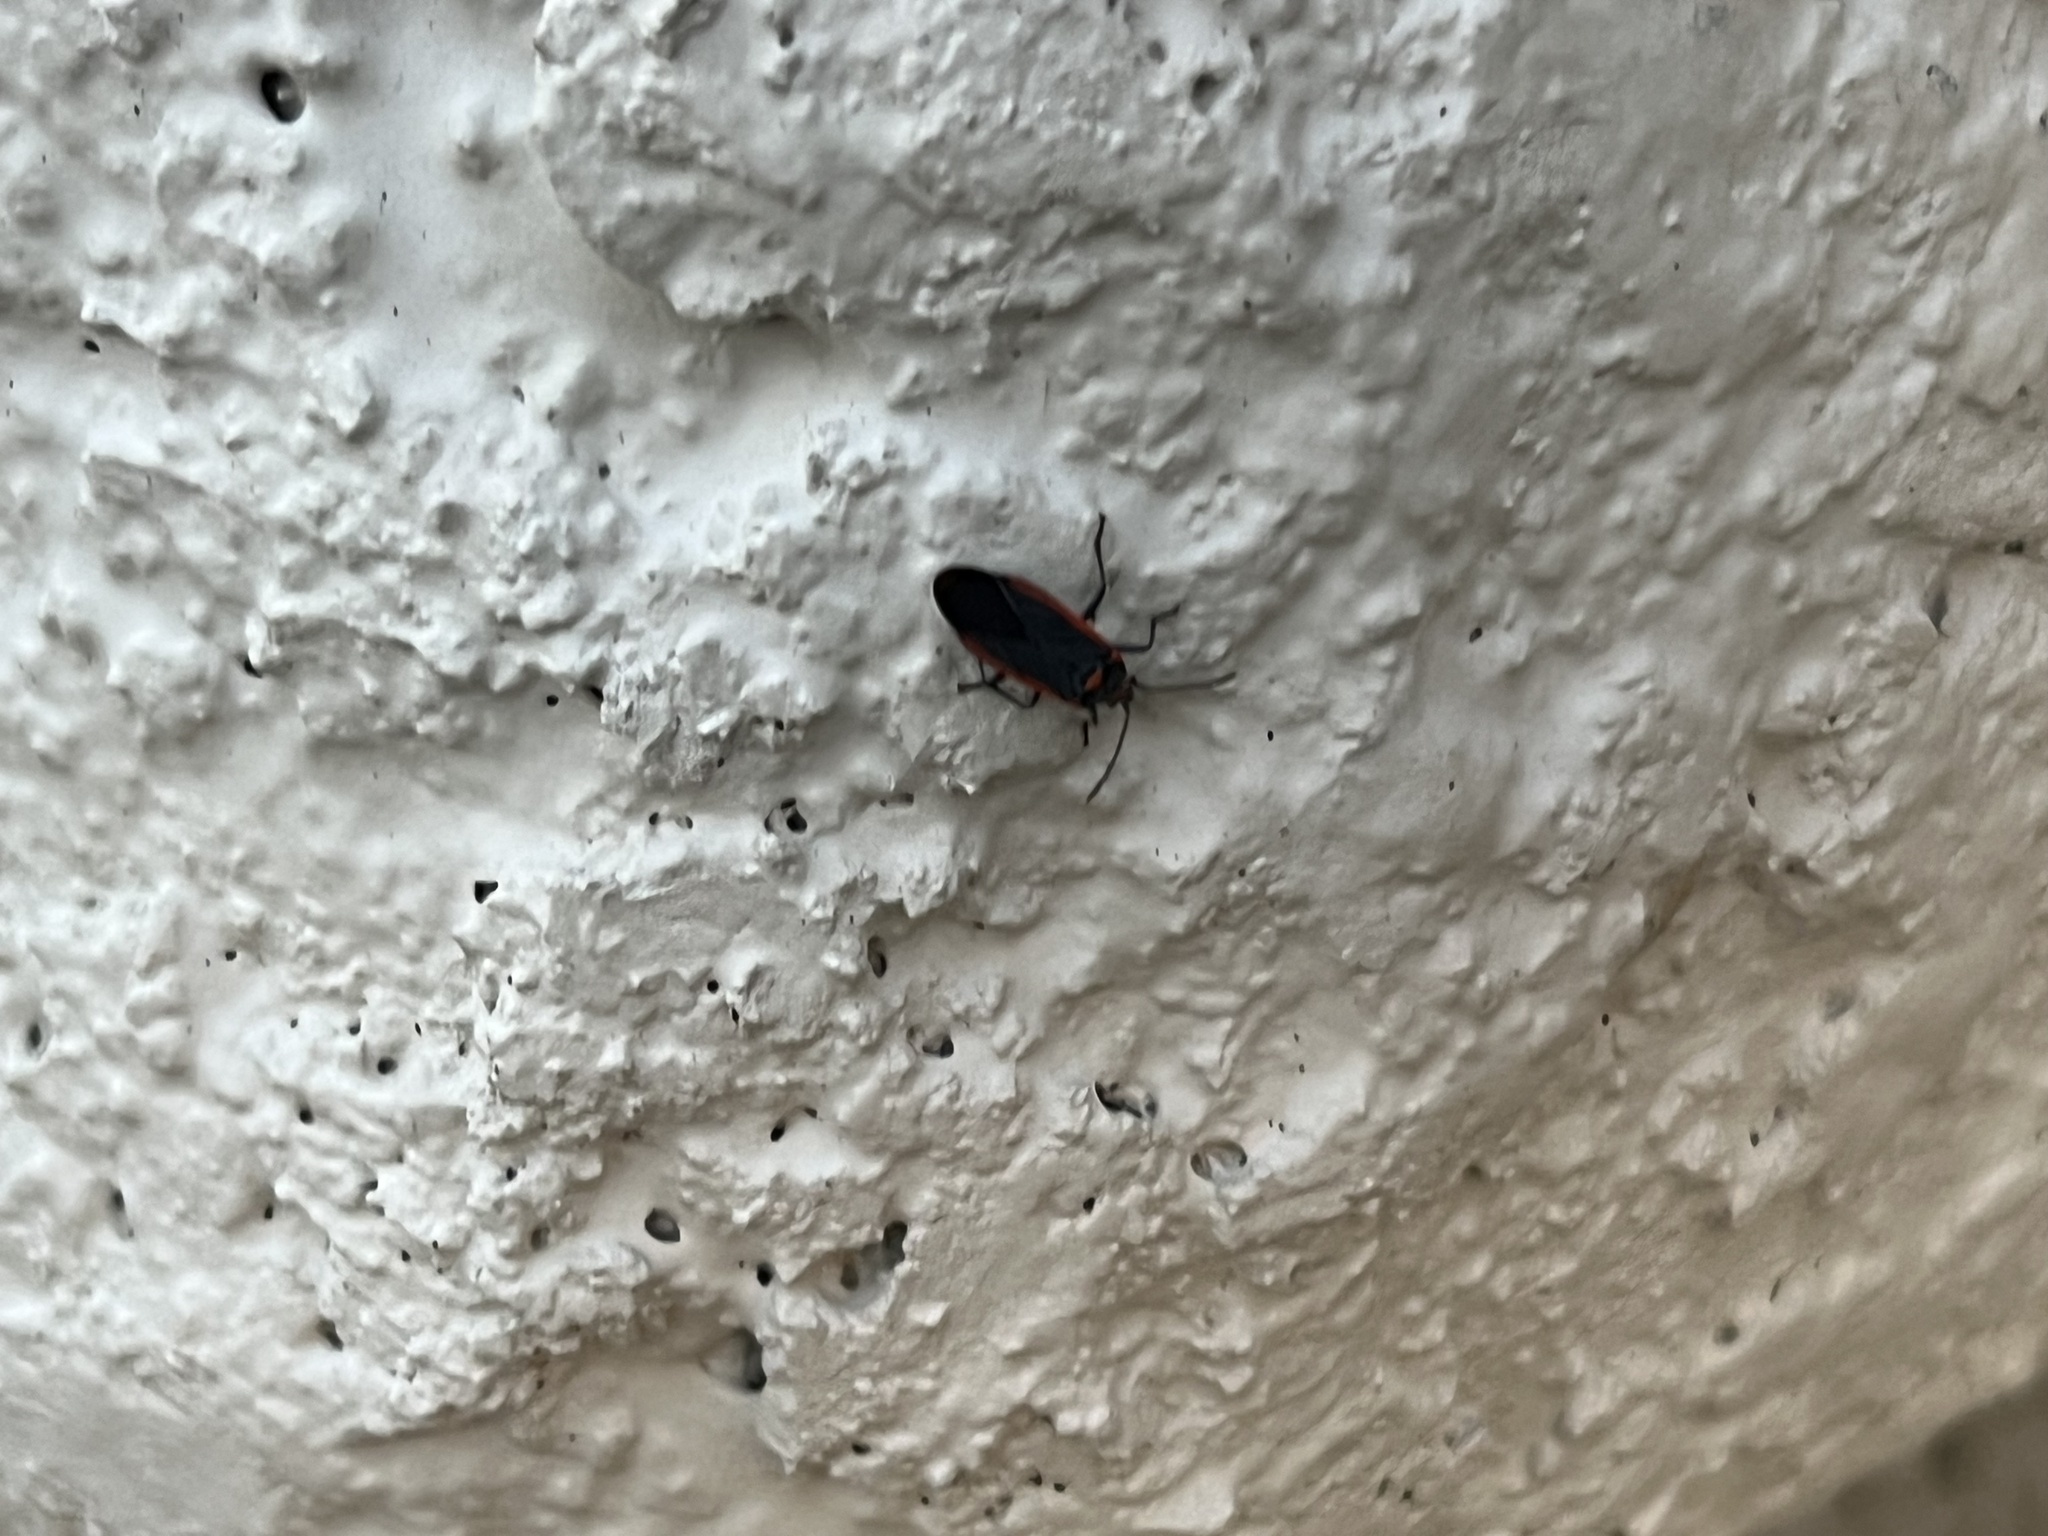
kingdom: Animalia
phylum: Arthropoda
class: Insecta
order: Hemiptera
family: Lygaeidae
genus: Melacoryphus
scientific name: Melacoryphus lateralis
